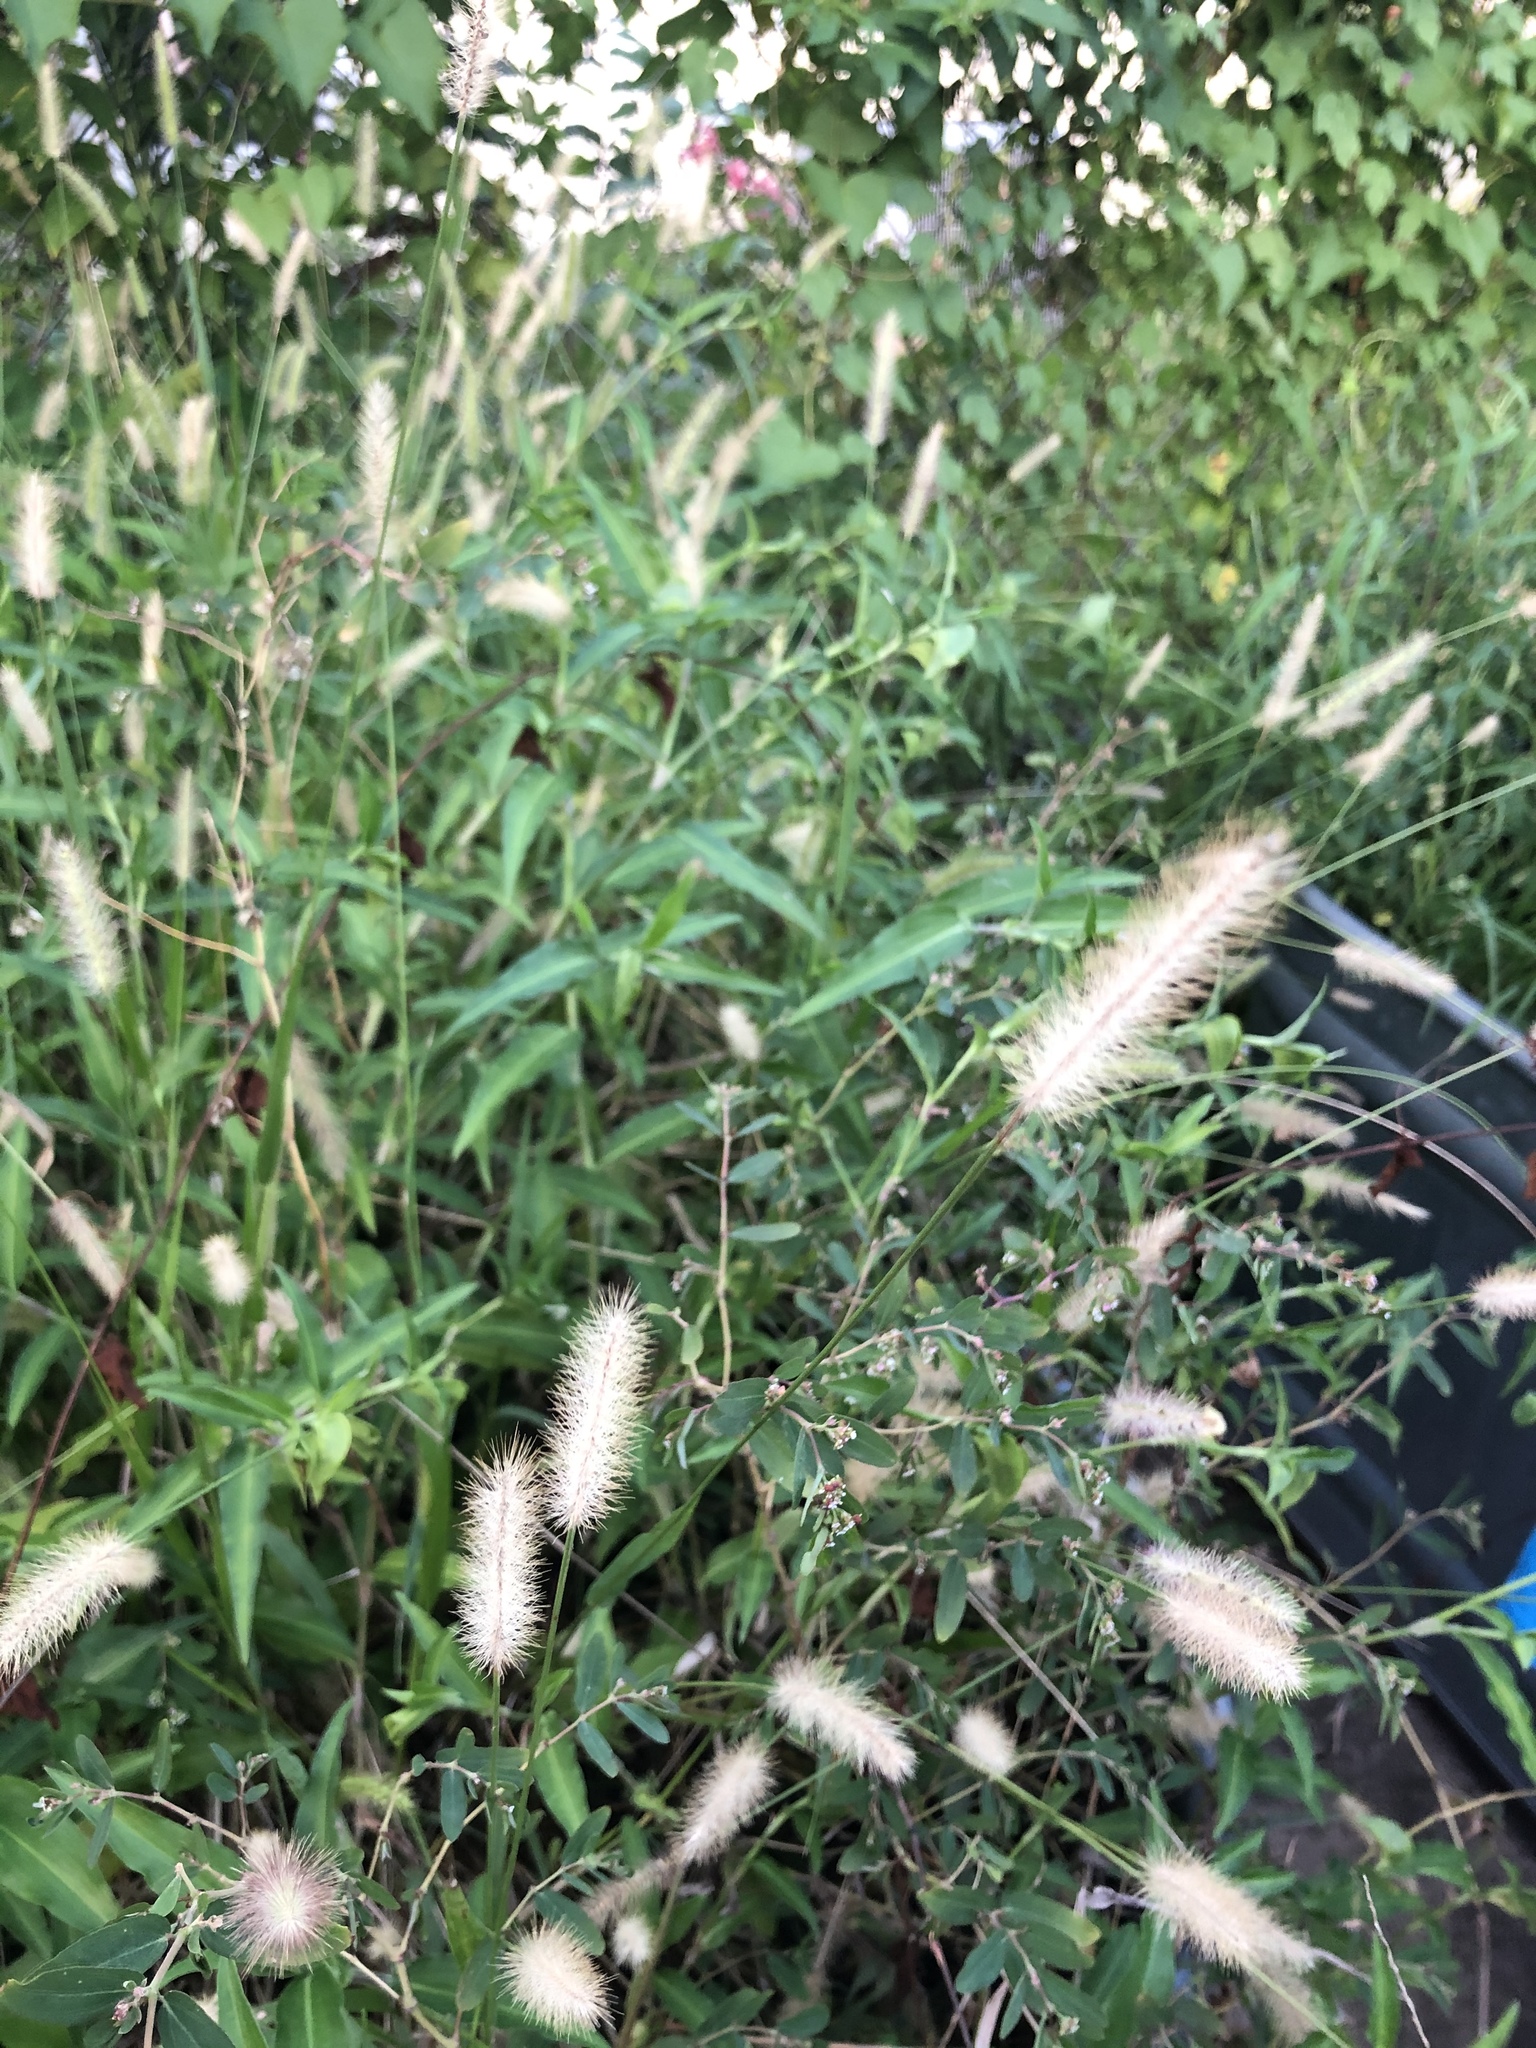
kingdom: Plantae
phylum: Tracheophyta
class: Liliopsida
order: Poales
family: Poaceae
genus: Setaria
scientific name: Setaria parviflora
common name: Knotroot bristle-grass
